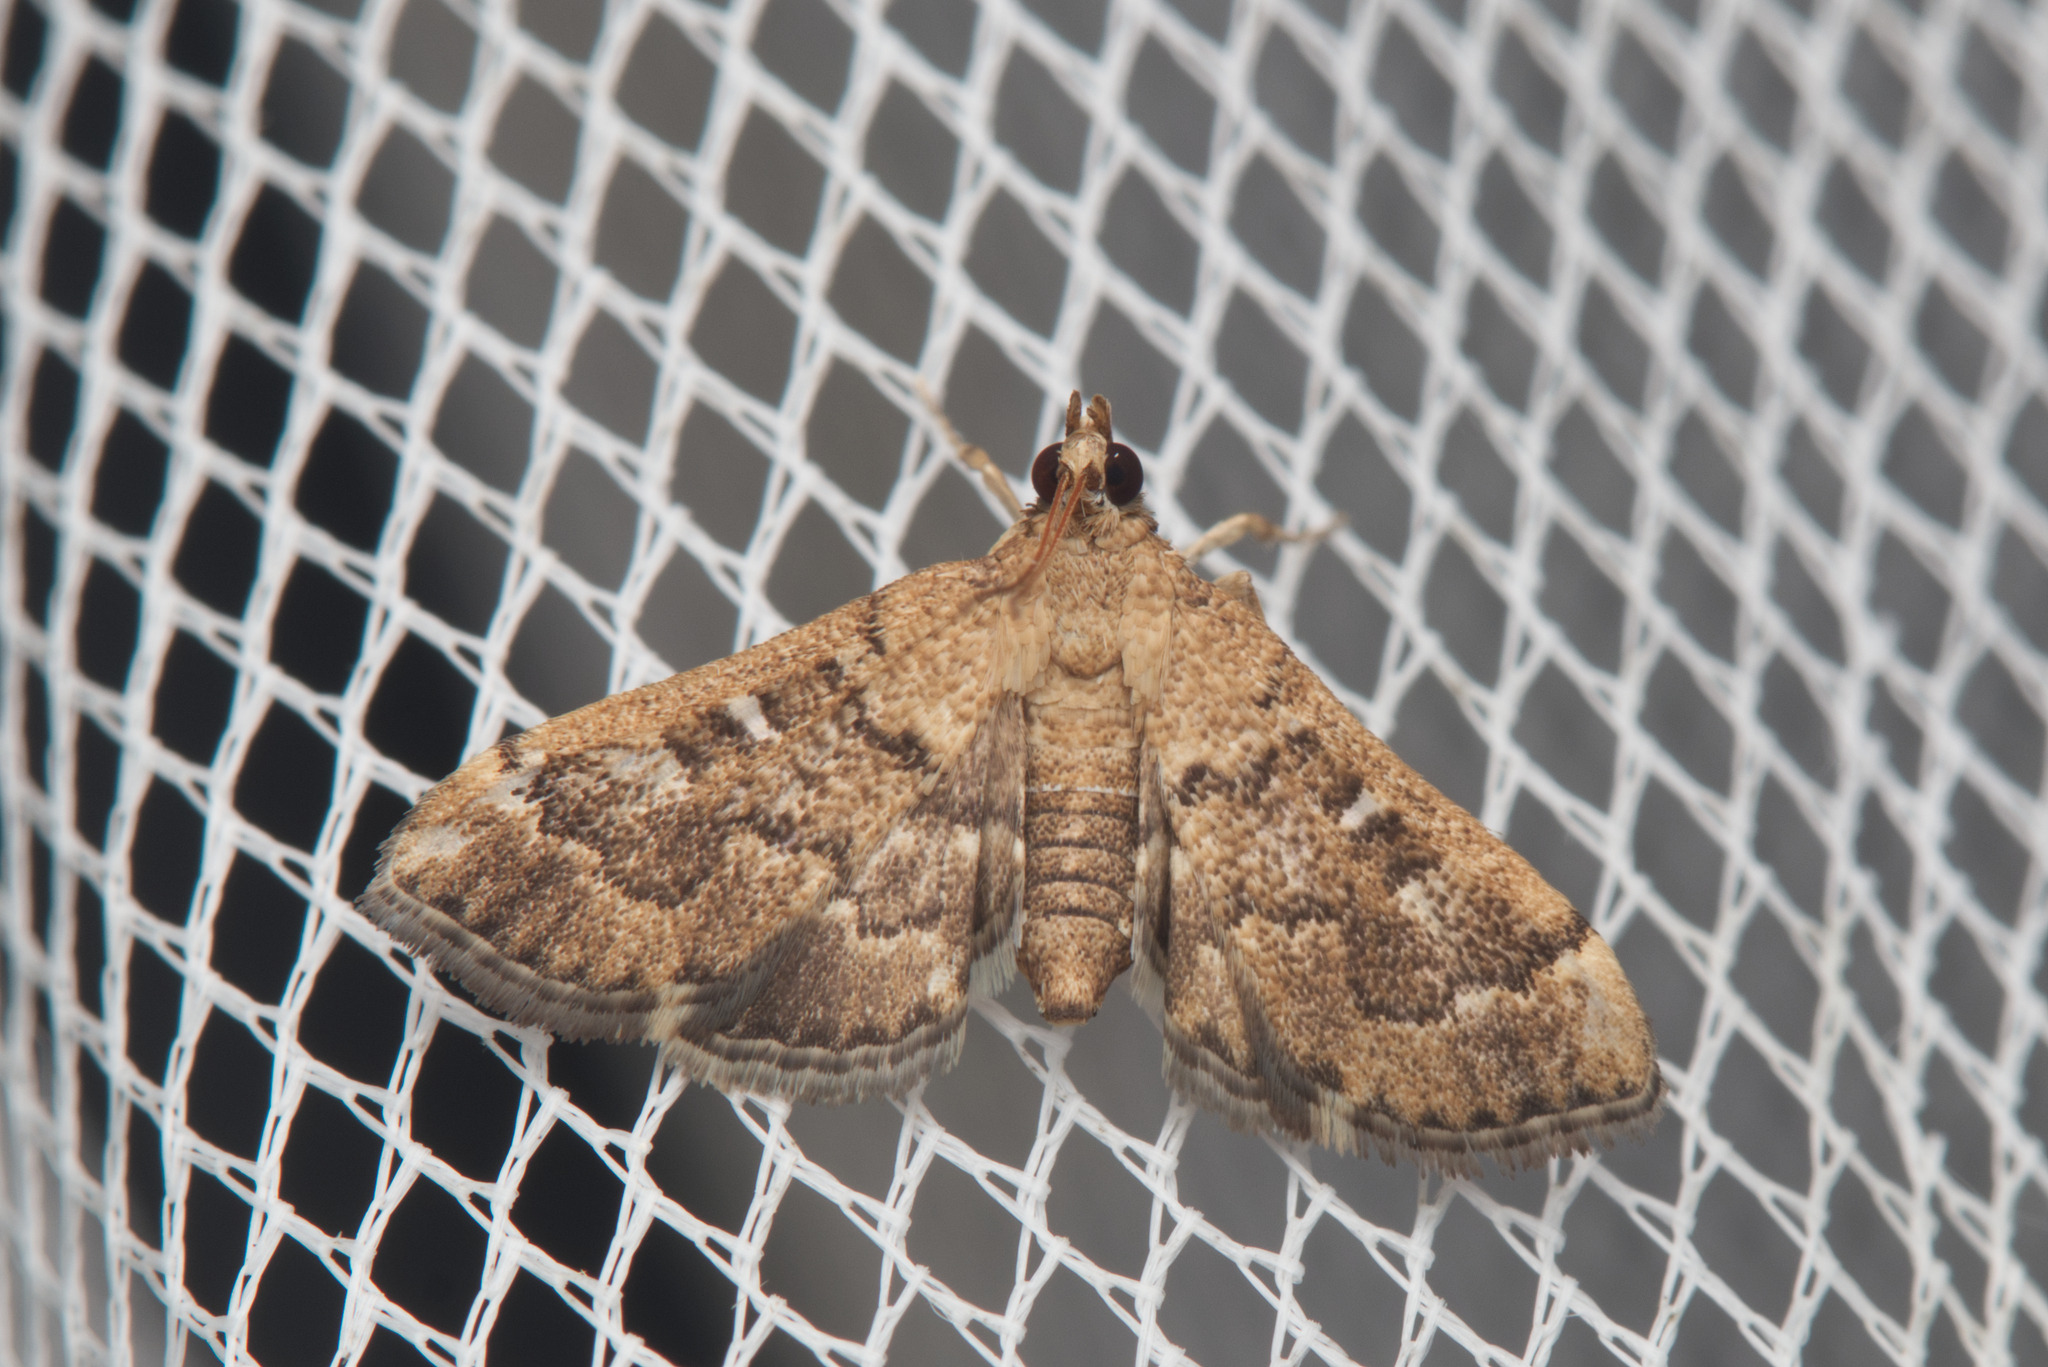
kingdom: Animalia
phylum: Arthropoda
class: Insecta
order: Lepidoptera
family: Crambidae
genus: Nacoleia
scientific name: Nacoleia rhoeoalis
